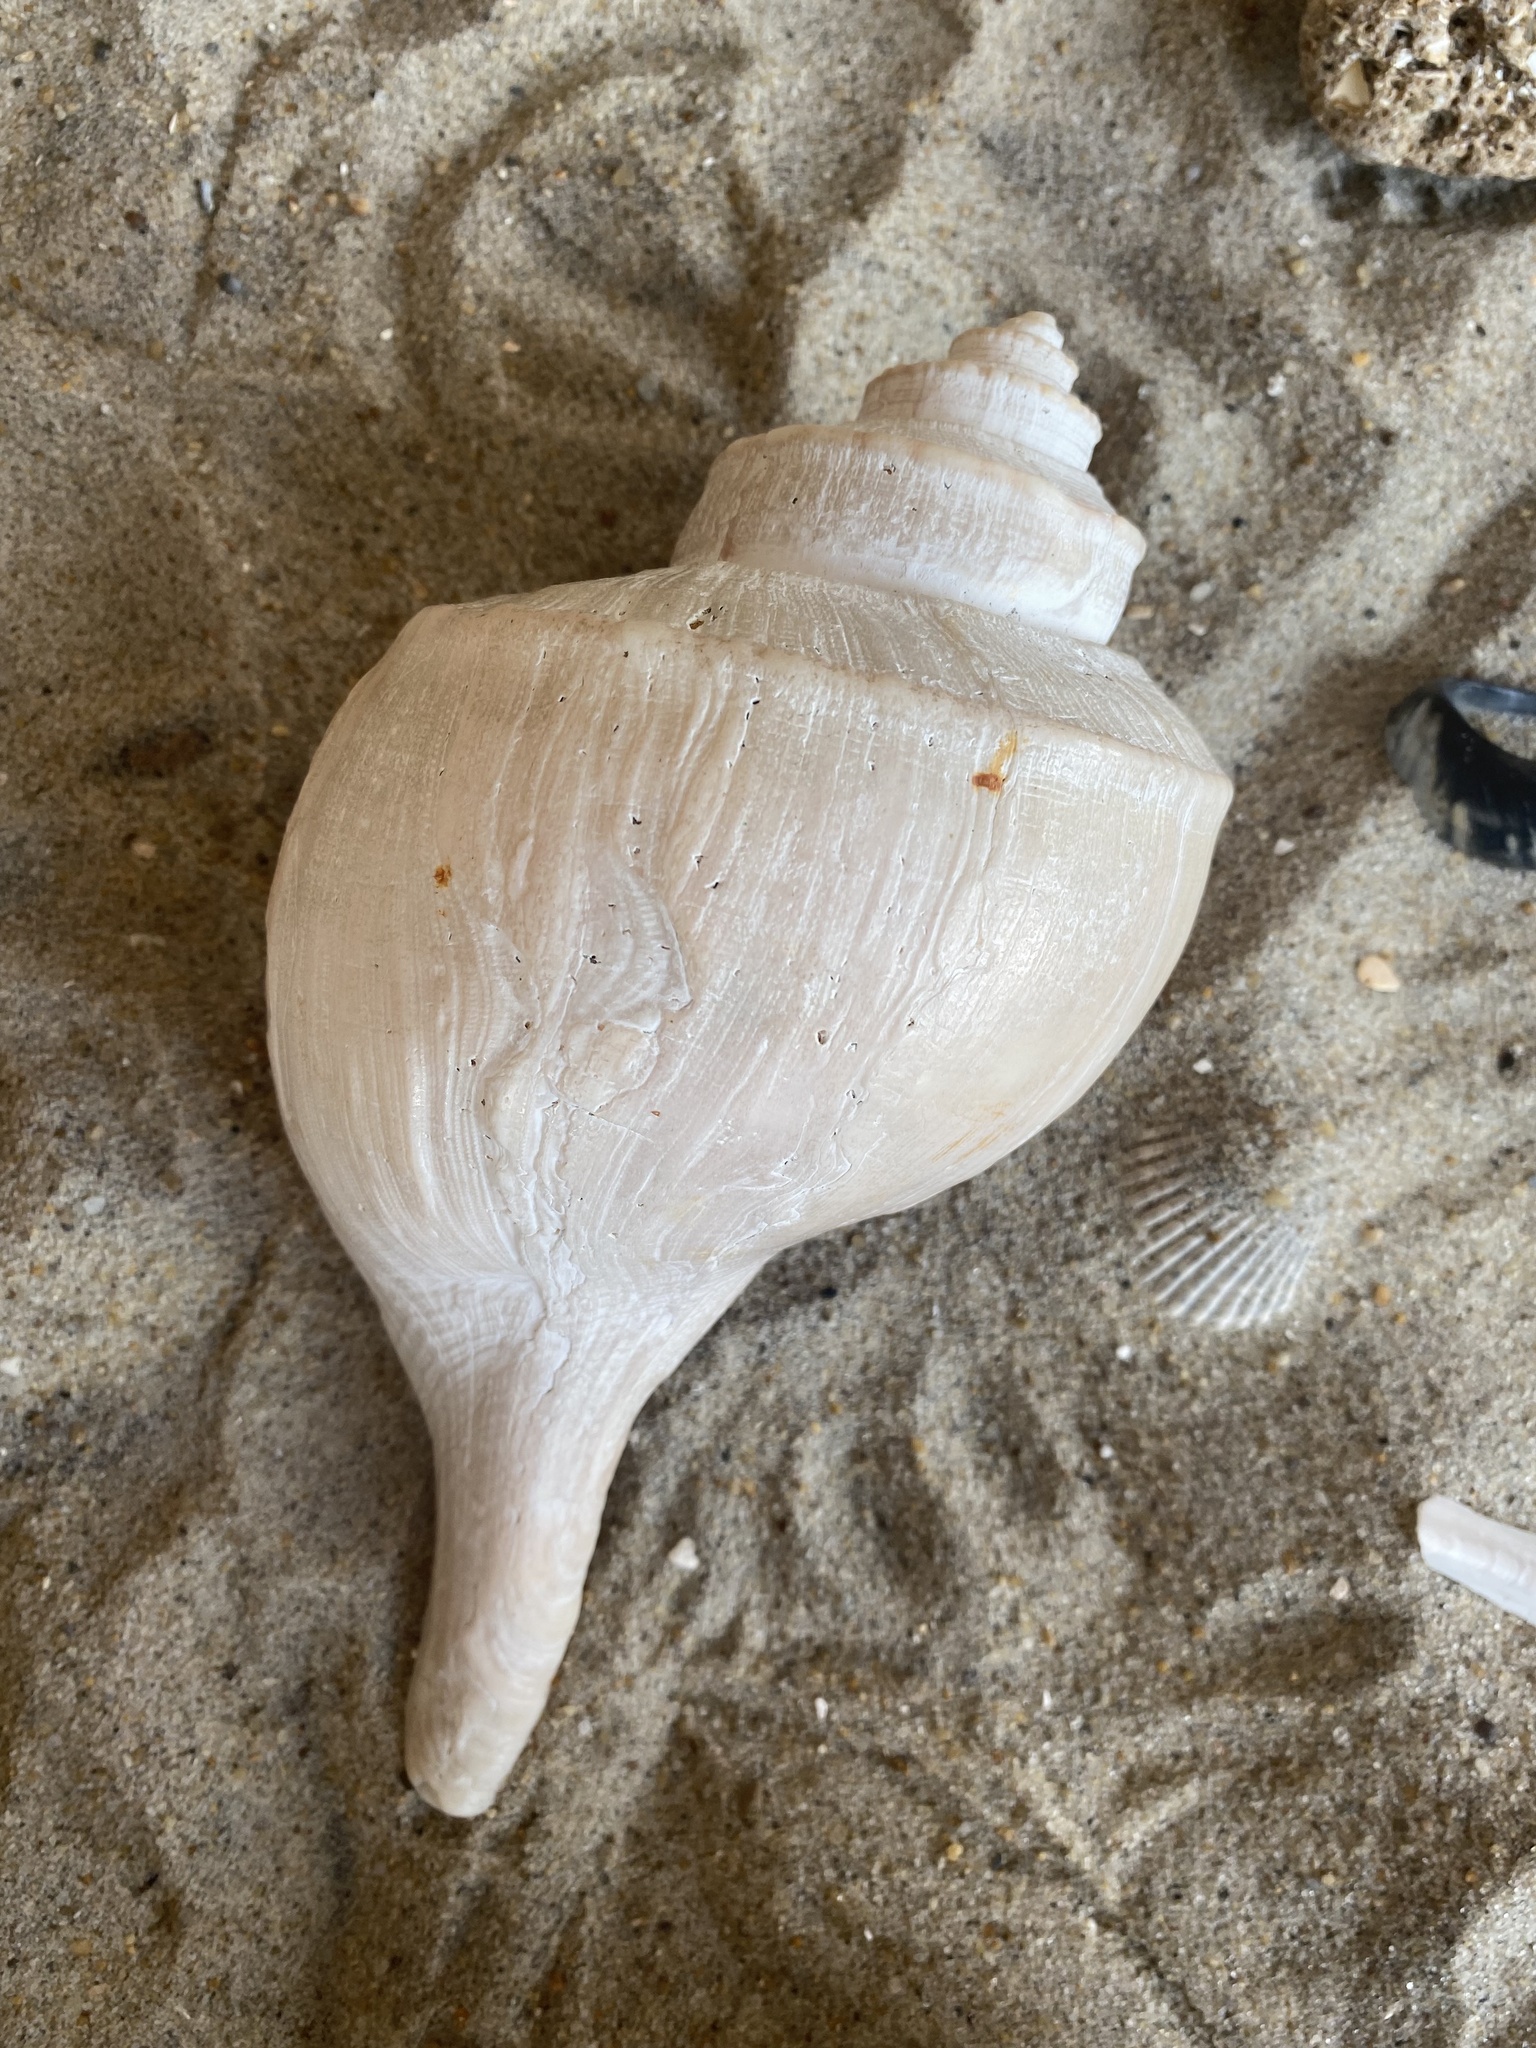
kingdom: Animalia
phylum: Mollusca
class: Gastropoda
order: Neogastropoda
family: Busyconidae
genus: Busycotypus
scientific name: Busycotypus canaliculatus
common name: Channeled whelk
